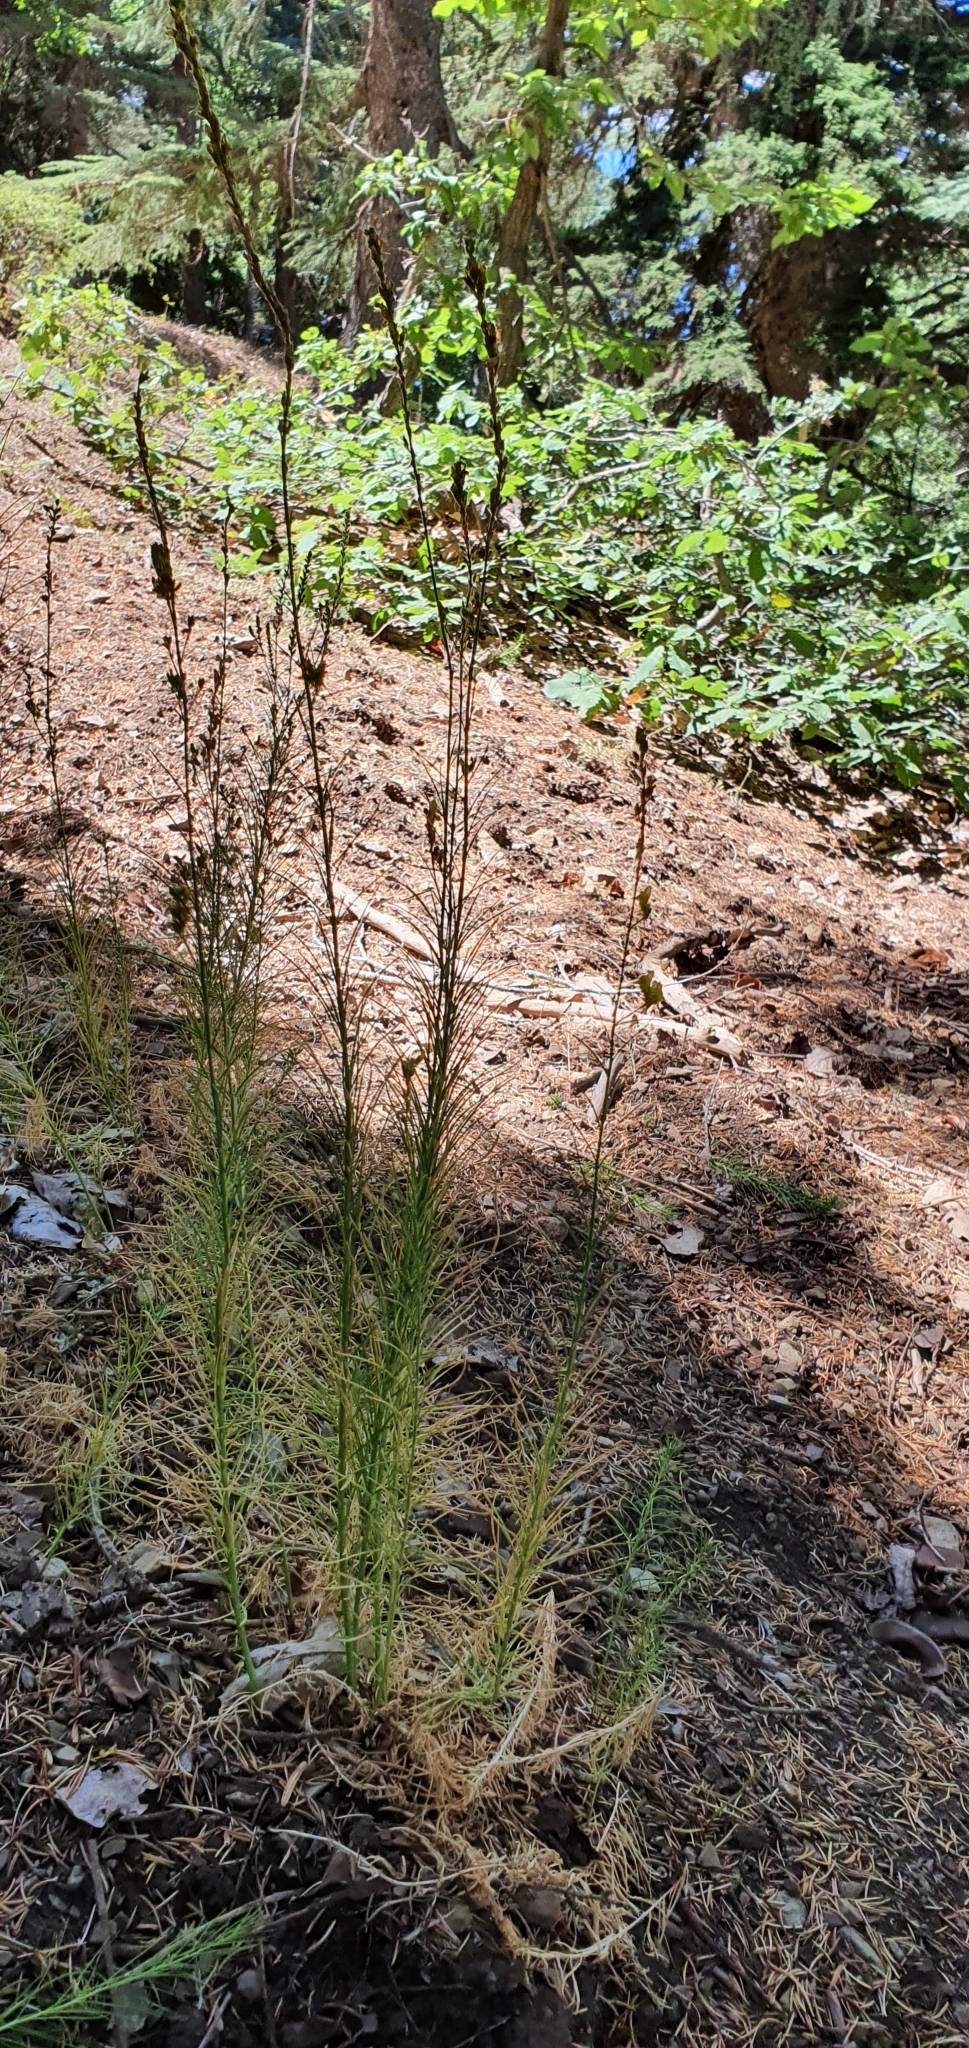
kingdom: Plantae
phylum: Tracheophyta
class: Magnoliopsida
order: Lamiales
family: Plantaginaceae
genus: Linaria
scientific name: Linaria pinifolia
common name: Pineneedle toadflax
